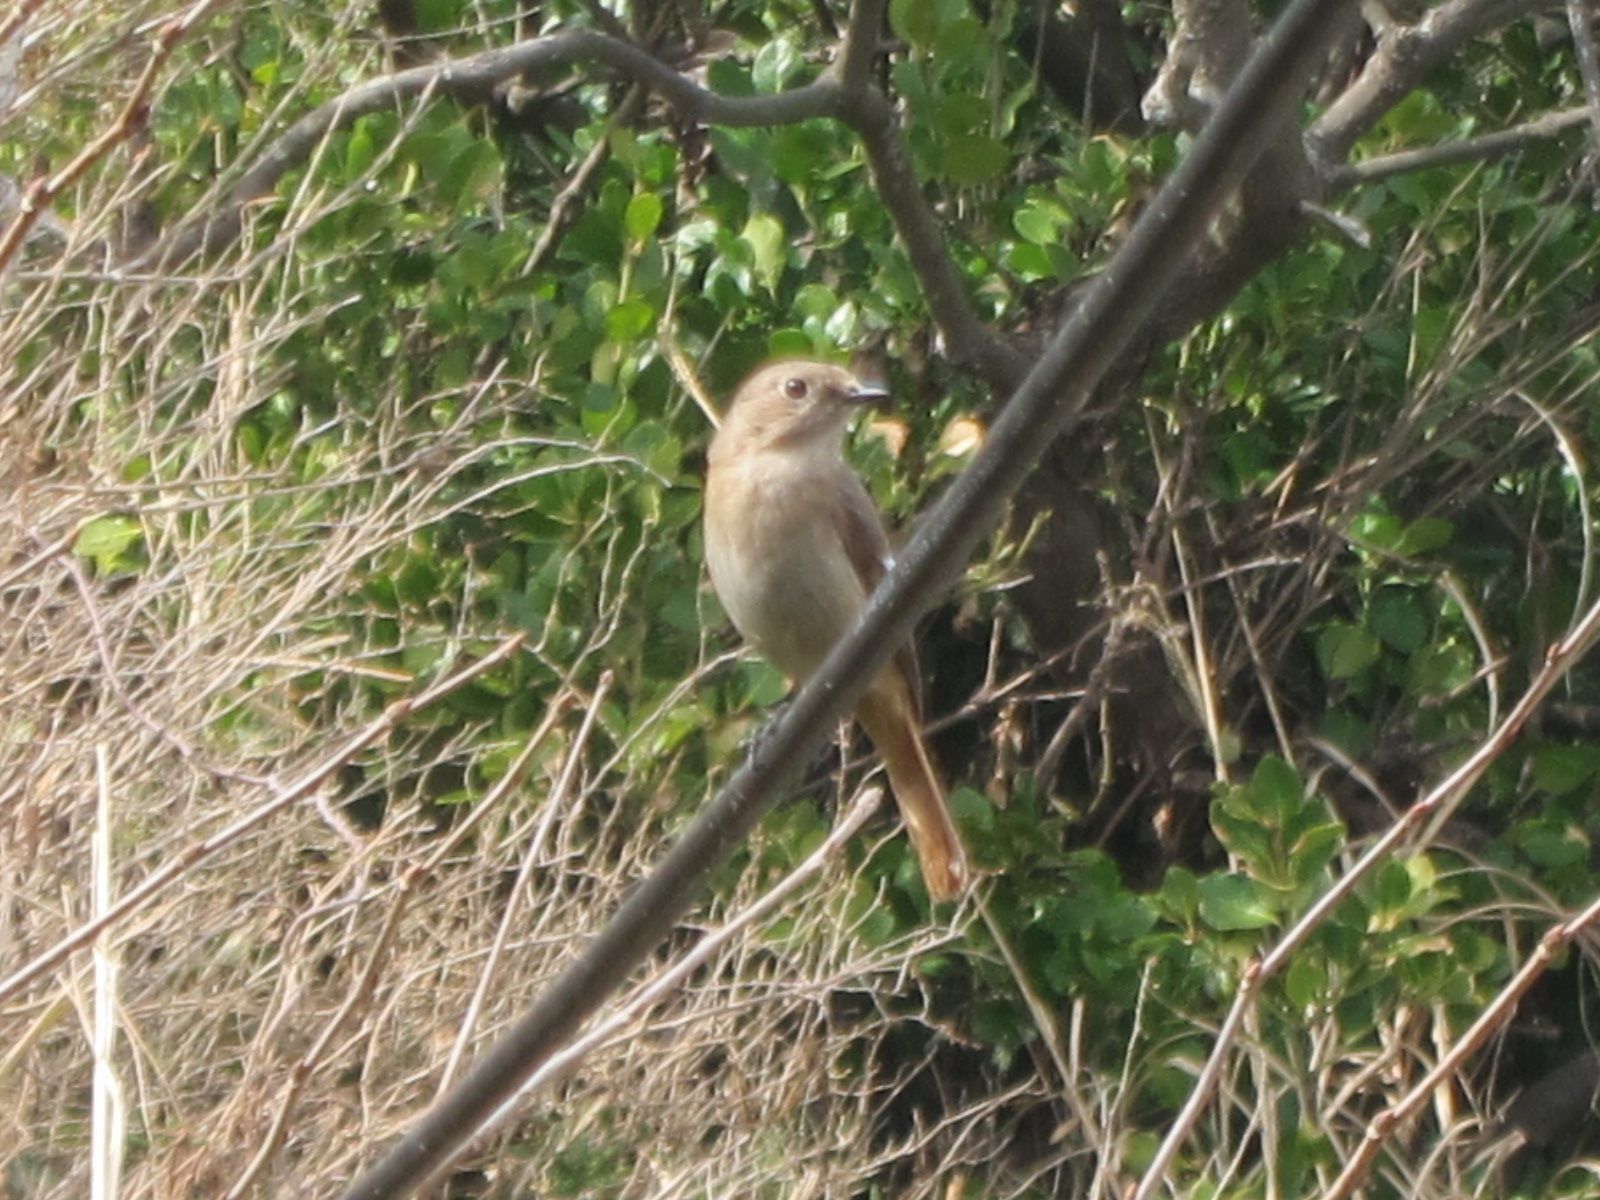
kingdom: Animalia
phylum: Chordata
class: Aves
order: Passeriformes
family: Muscicapidae
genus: Phoenicurus
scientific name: Phoenicurus auroreus
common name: Daurian redstart
